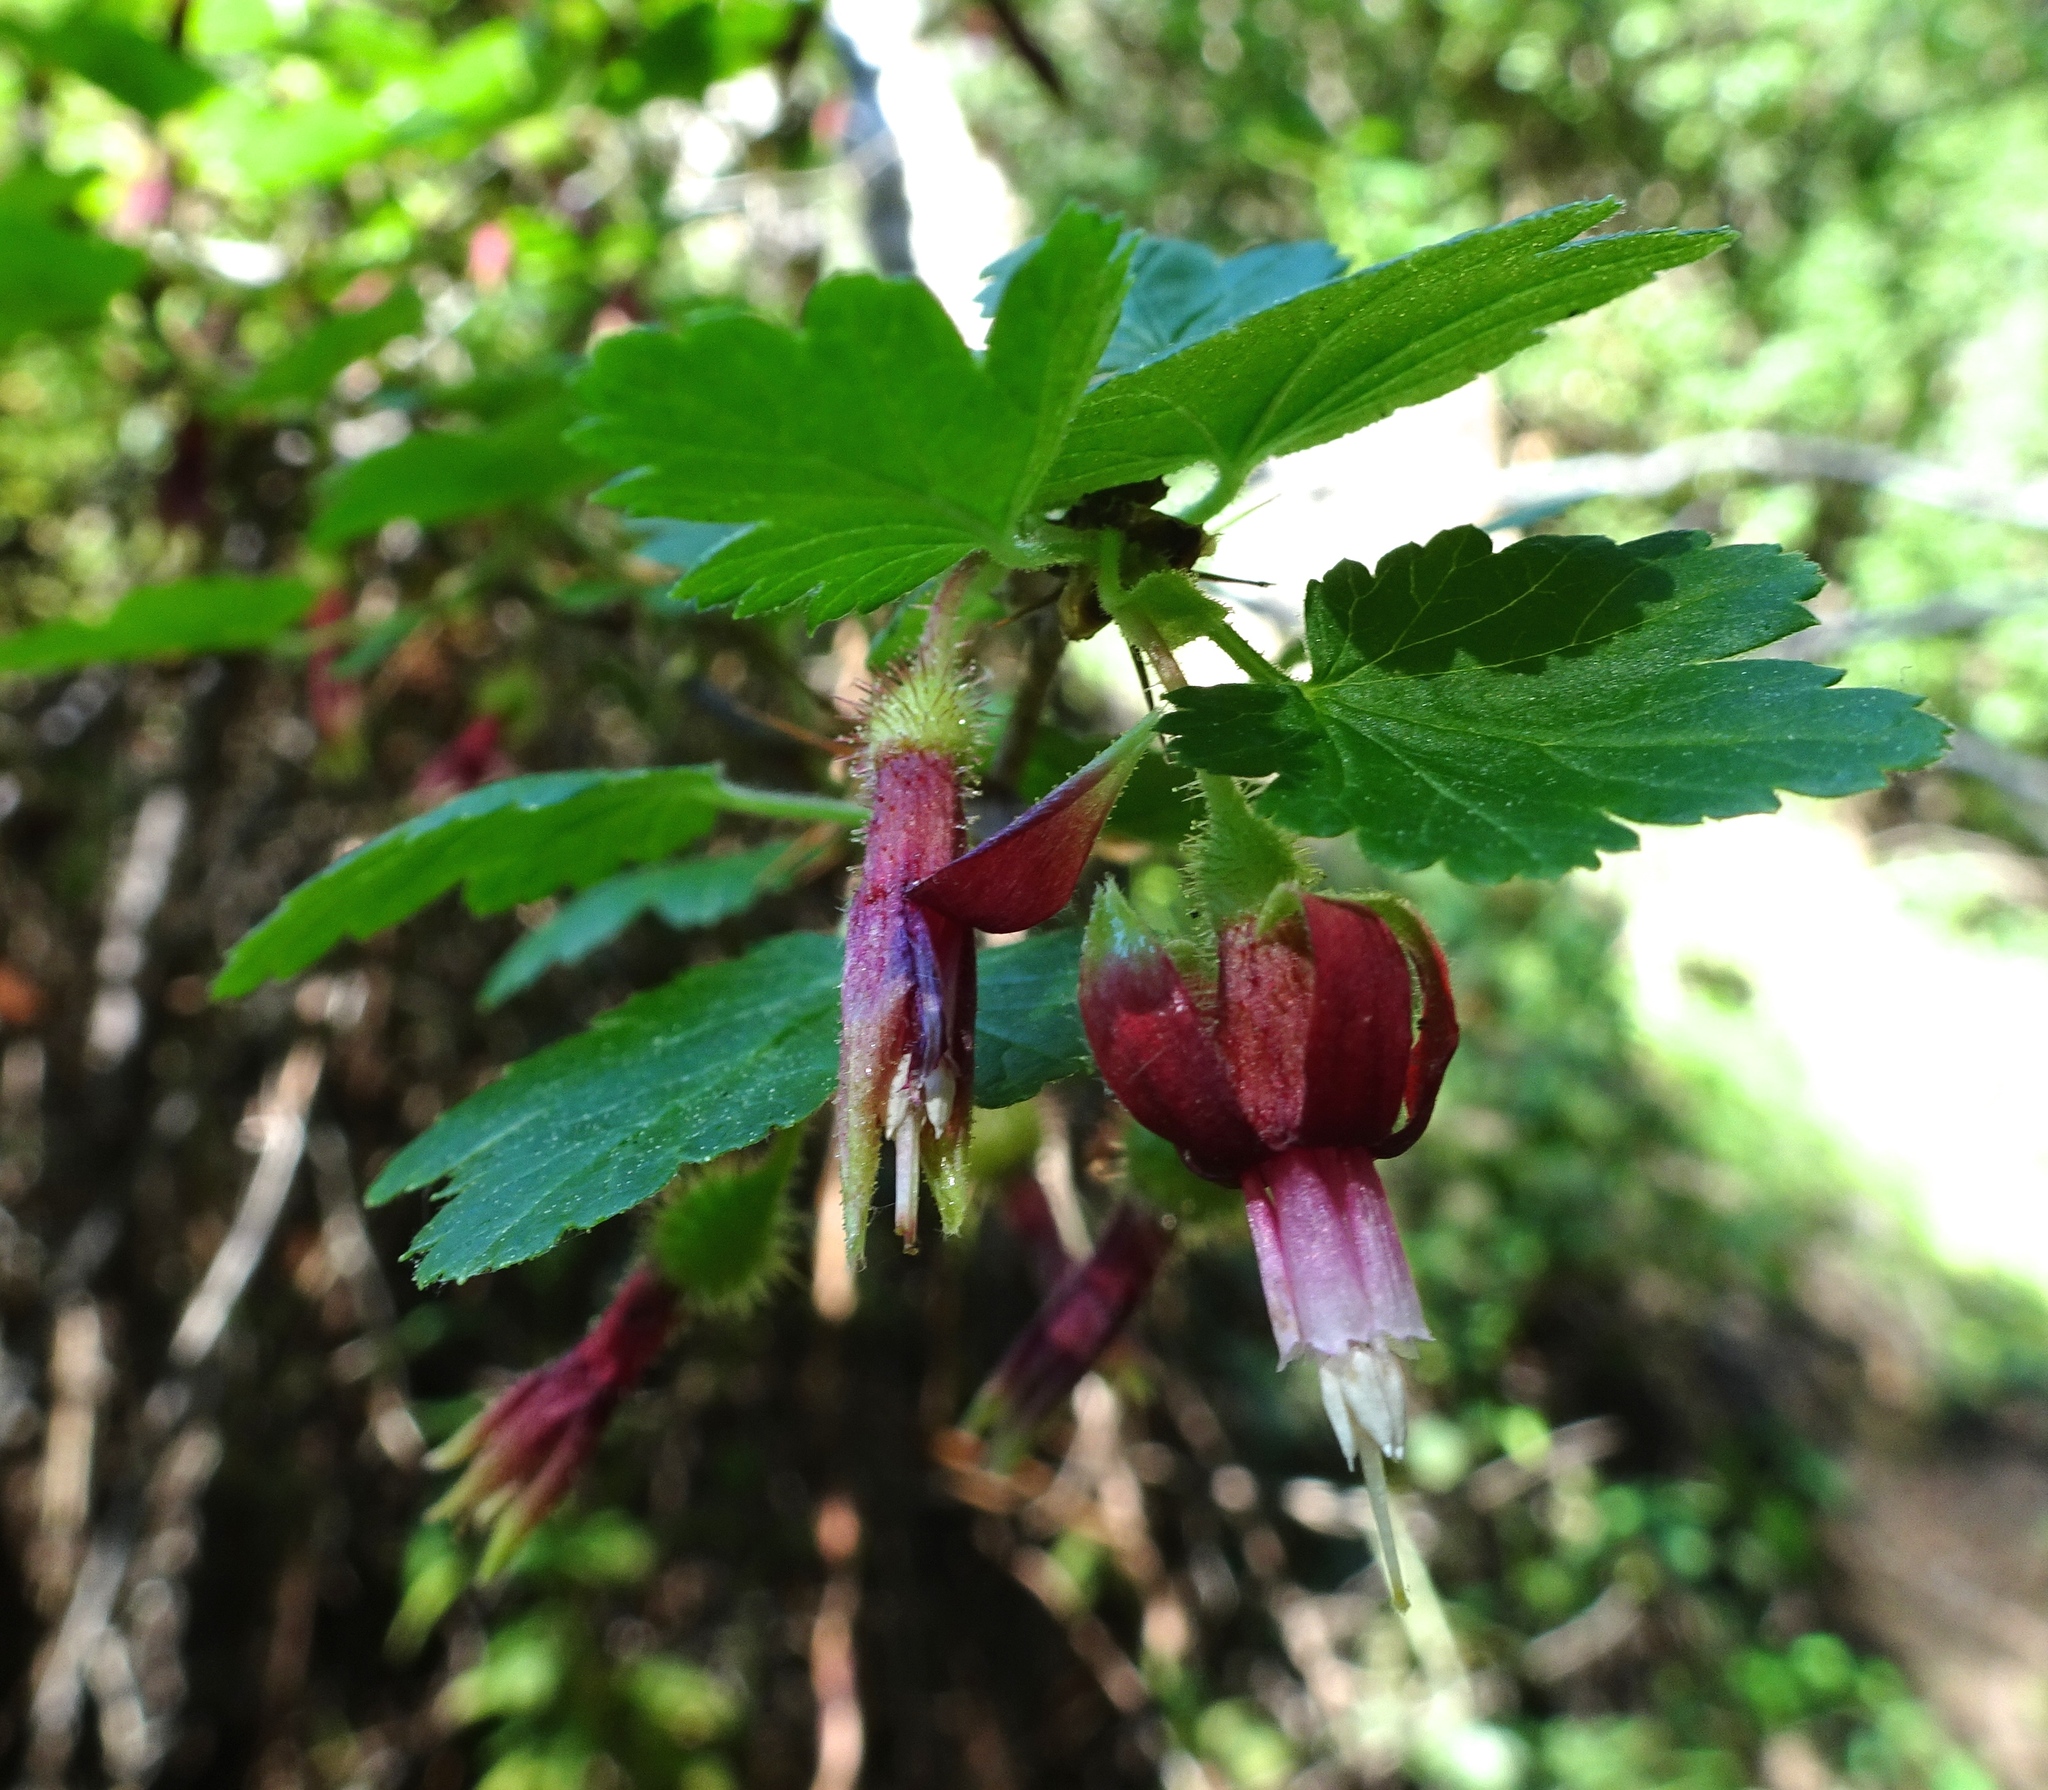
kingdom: Plantae
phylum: Tracheophyta
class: Magnoliopsida
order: Saxifragales
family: Grossulariaceae
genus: Ribes
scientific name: Ribes menziesii
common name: Canyon gooseberry
